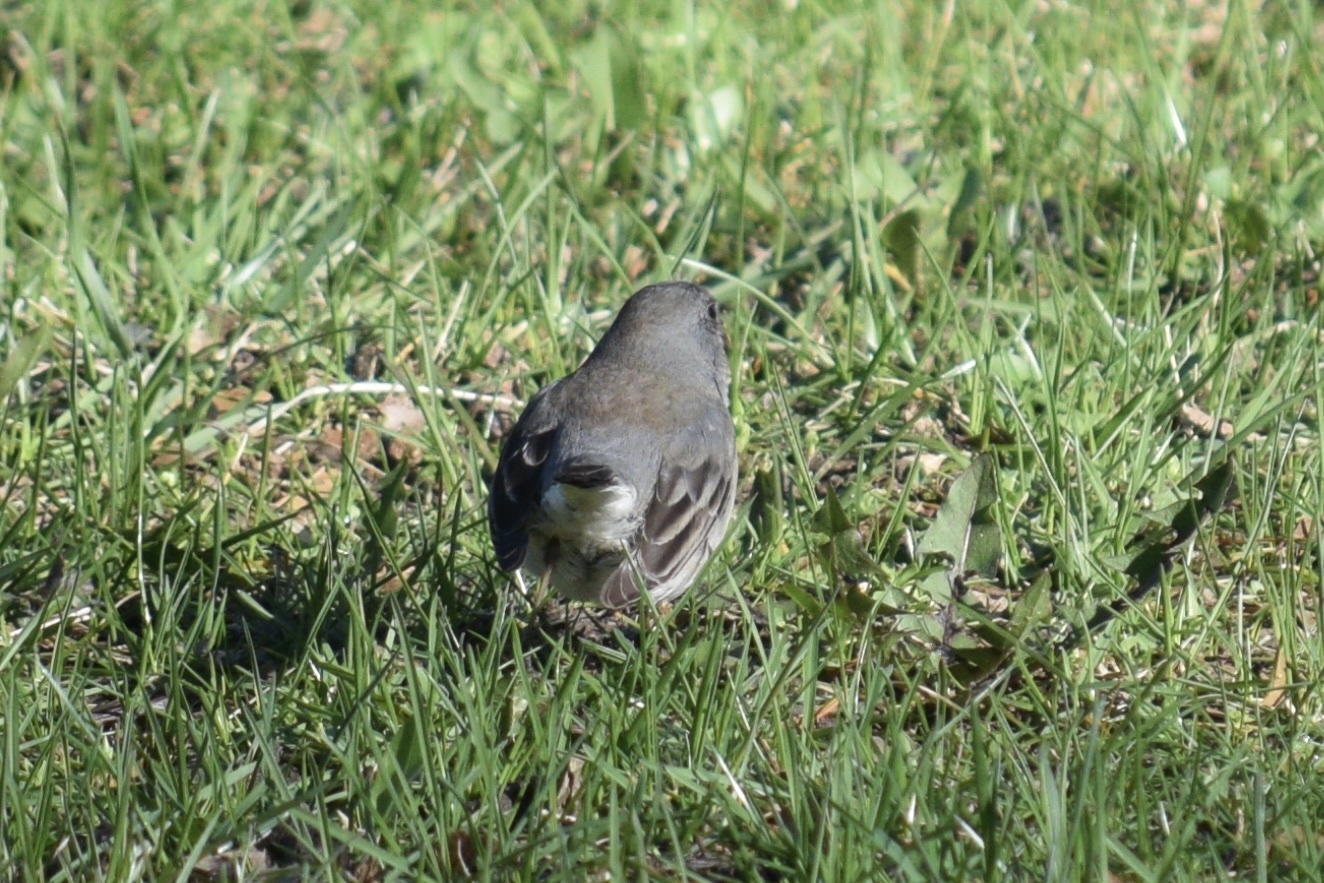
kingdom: Animalia
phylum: Chordata
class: Aves
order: Passeriformes
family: Passerellidae
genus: Junco
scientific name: Junco hyemalis
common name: Dark-eyed junco
